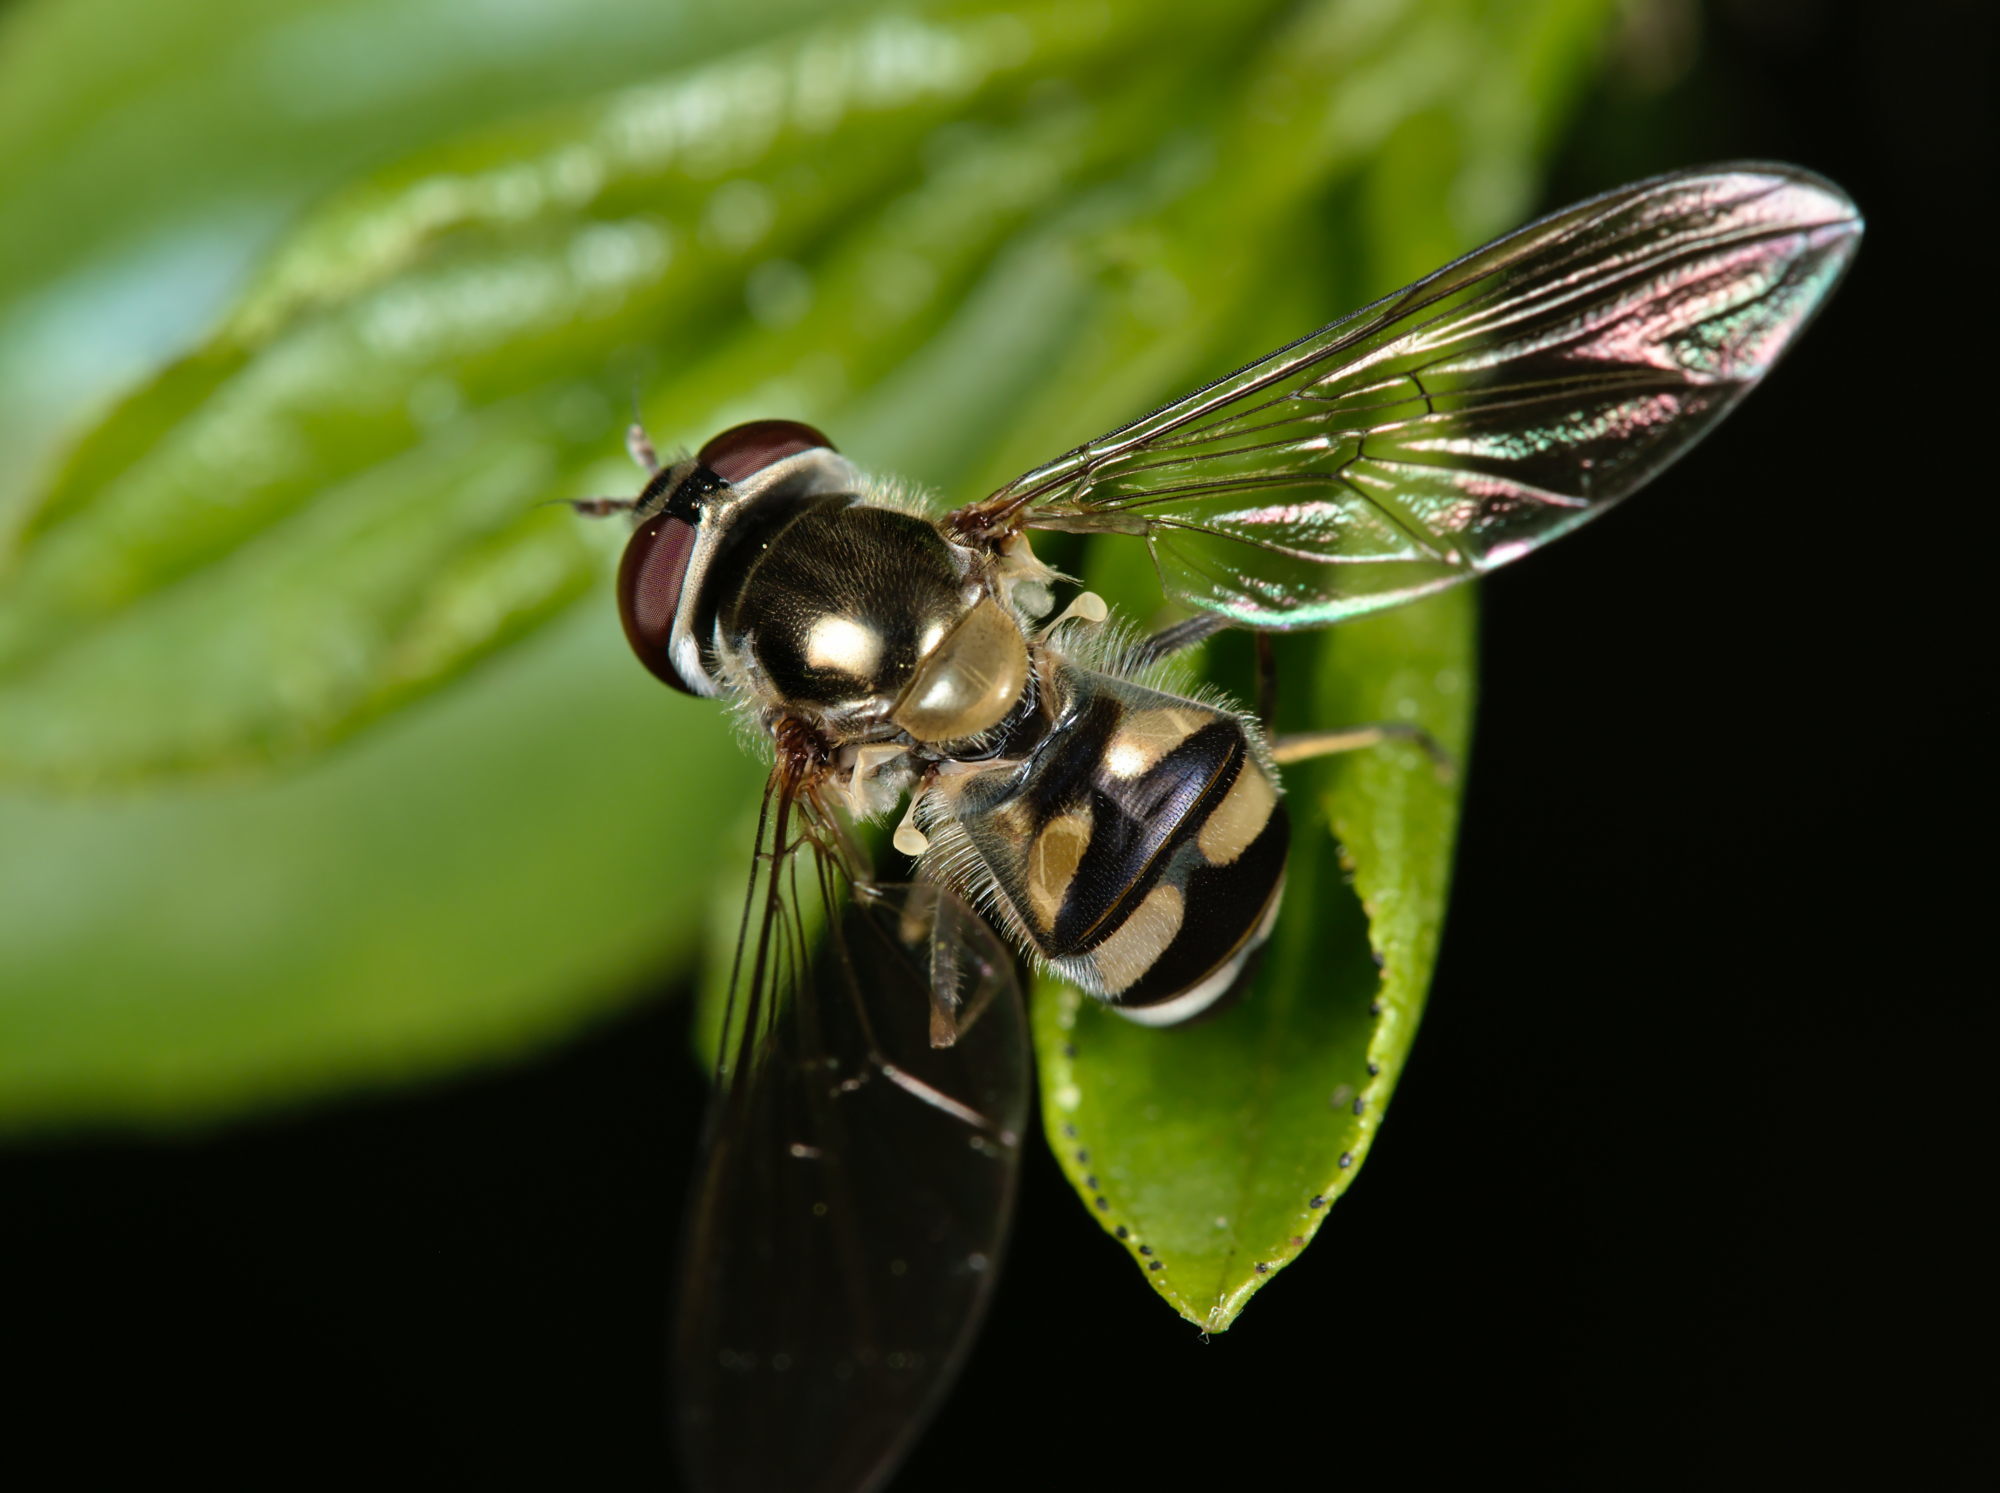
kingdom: Animalia
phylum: Arthropoda
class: Insecta
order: Diptera
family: Syrphidae
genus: Meliscaeva
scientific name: Meliscaeva auricollis
